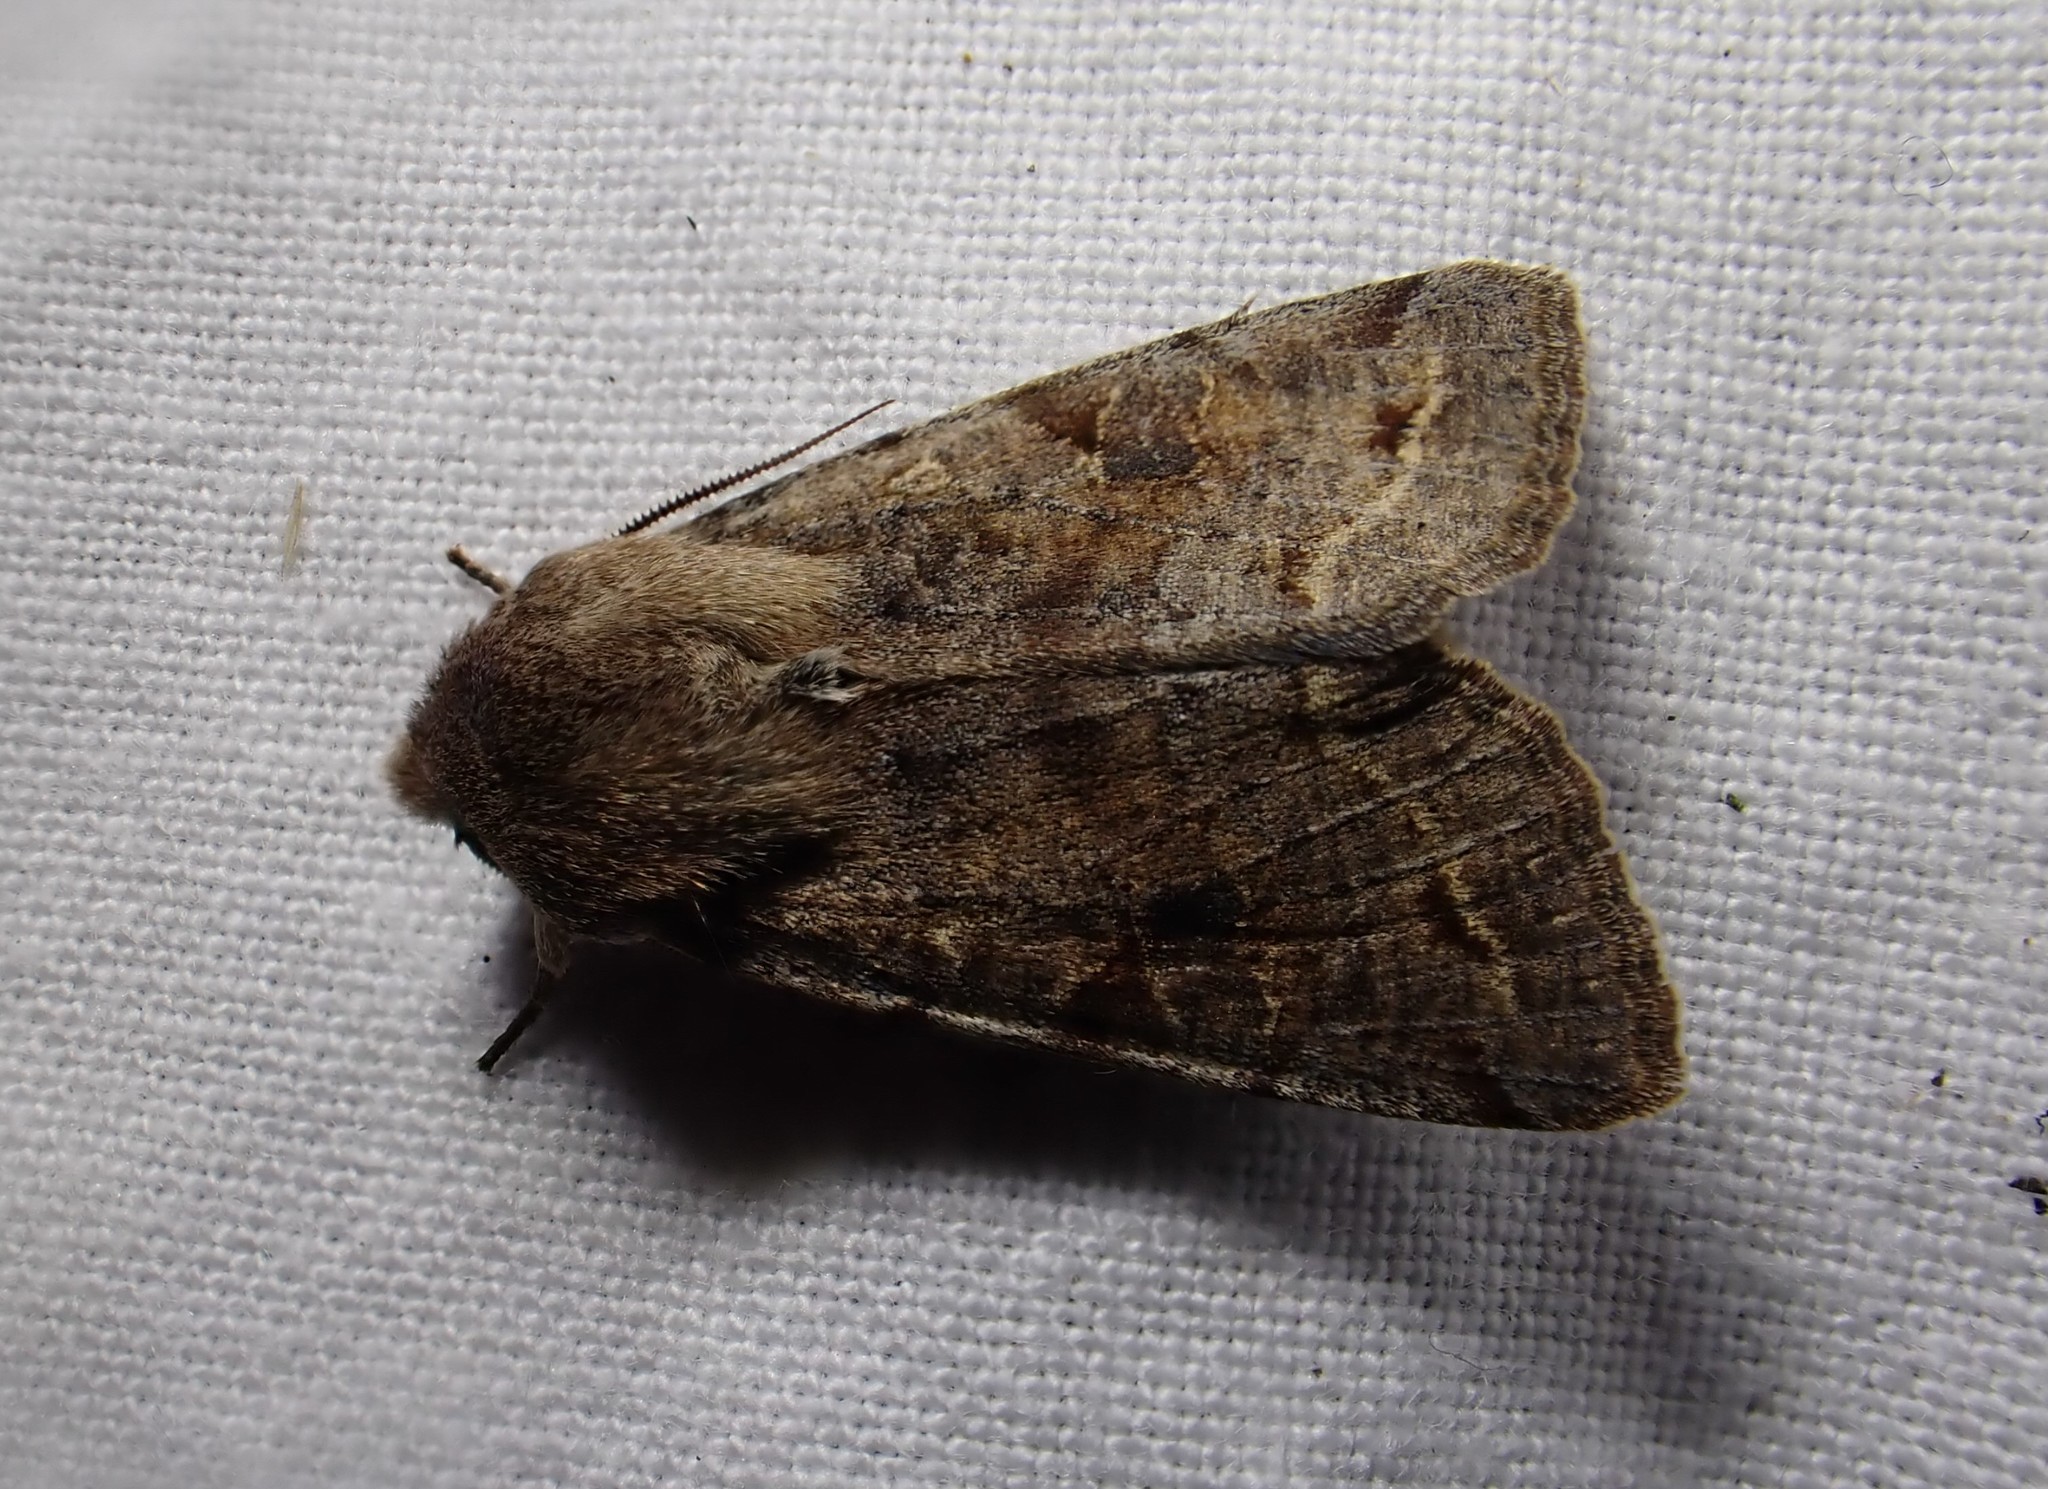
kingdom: Animalia
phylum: Arthropoda
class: Insecta
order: Lepidoptera
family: Noctuidae
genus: Orthosia
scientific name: Orthosia incerta
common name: Clouded drab
